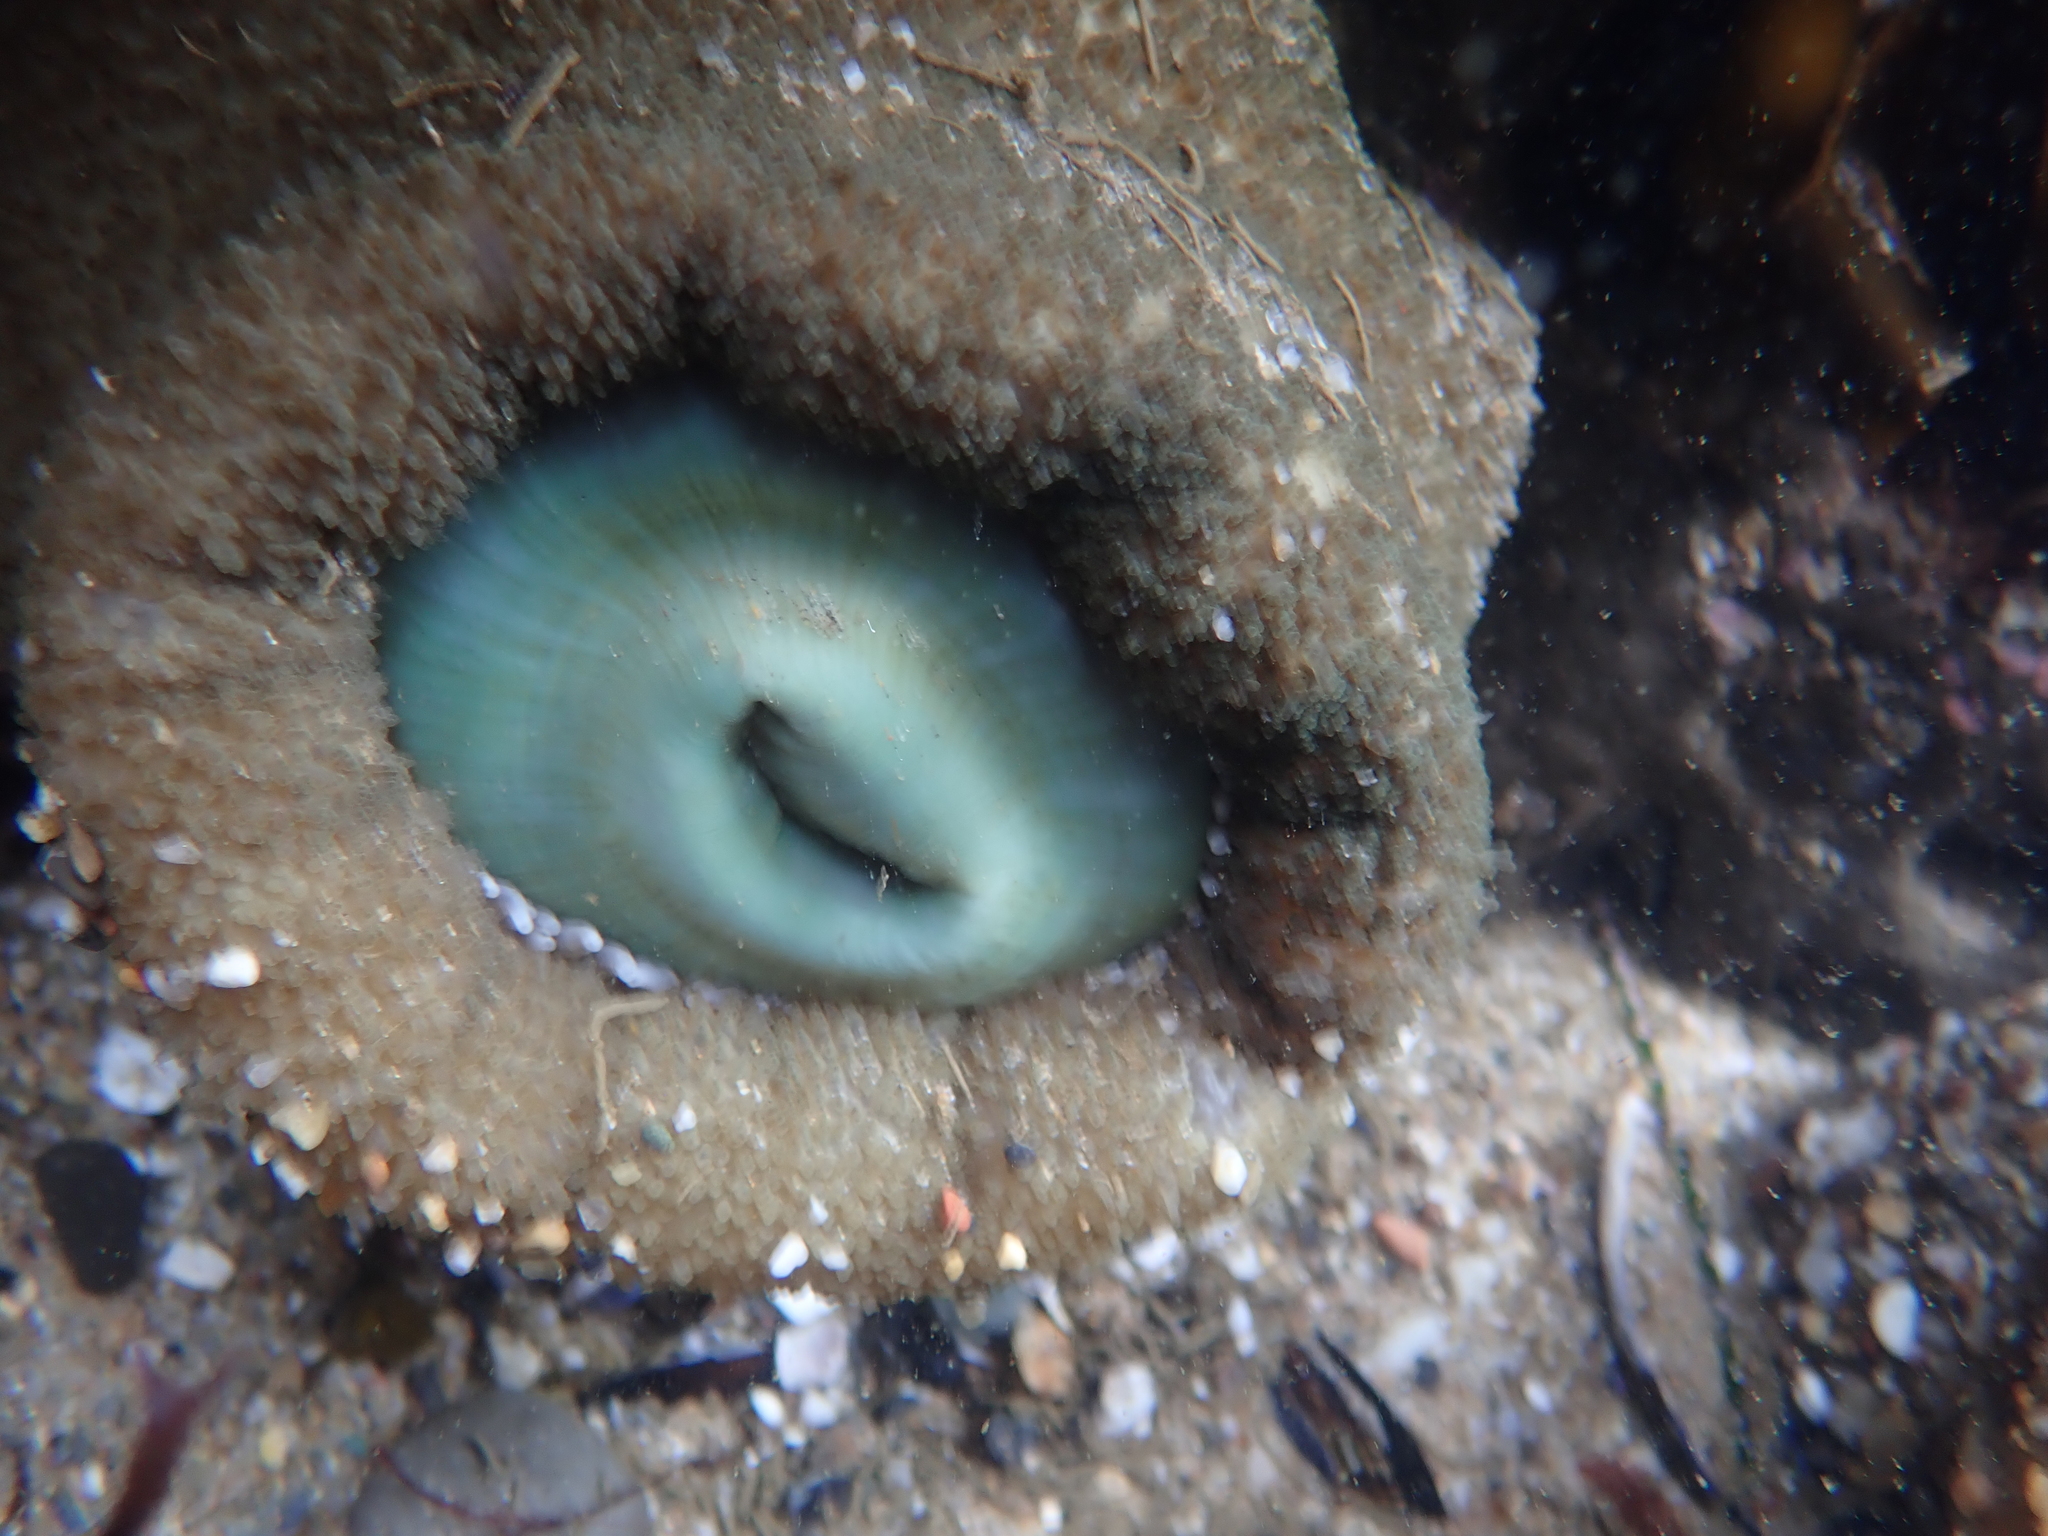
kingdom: Animalia
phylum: Cnidaria
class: Anthozoa
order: Actiniaria
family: Actiniidae
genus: Anthopleura
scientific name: Anthopleura xanthogrammica
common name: Giant green anemone
